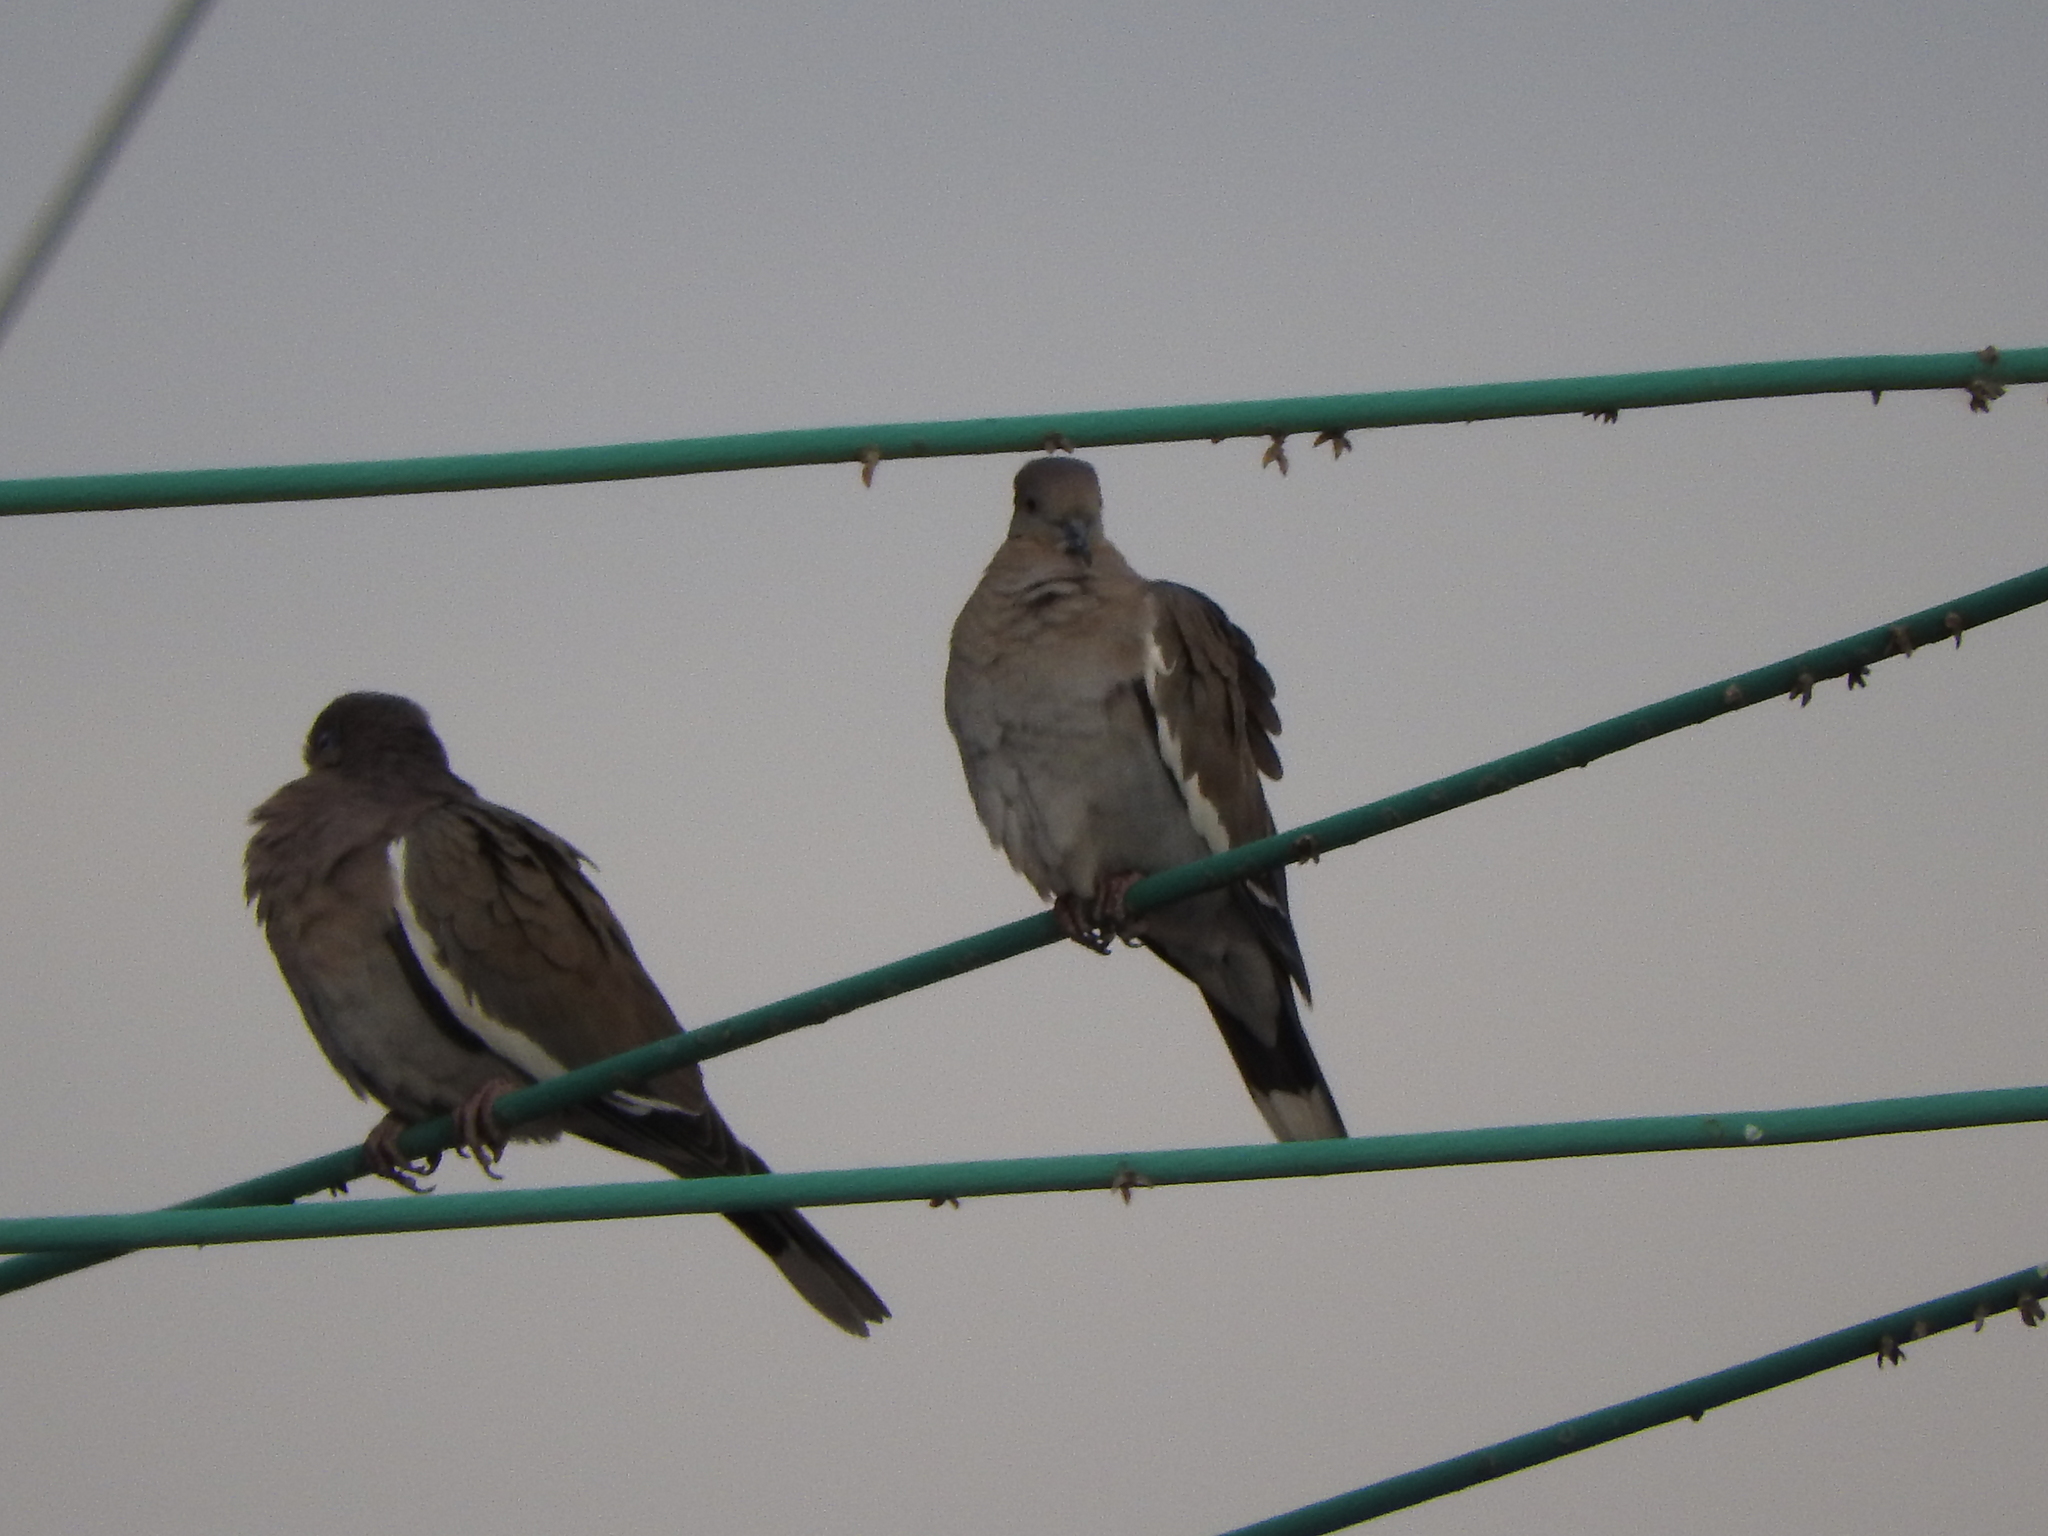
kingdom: Animalia
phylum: Chordata
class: Aves
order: Columbiformes
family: Columbidae
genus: Zenaida
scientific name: Zenaida asiatica
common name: White-winged dove
